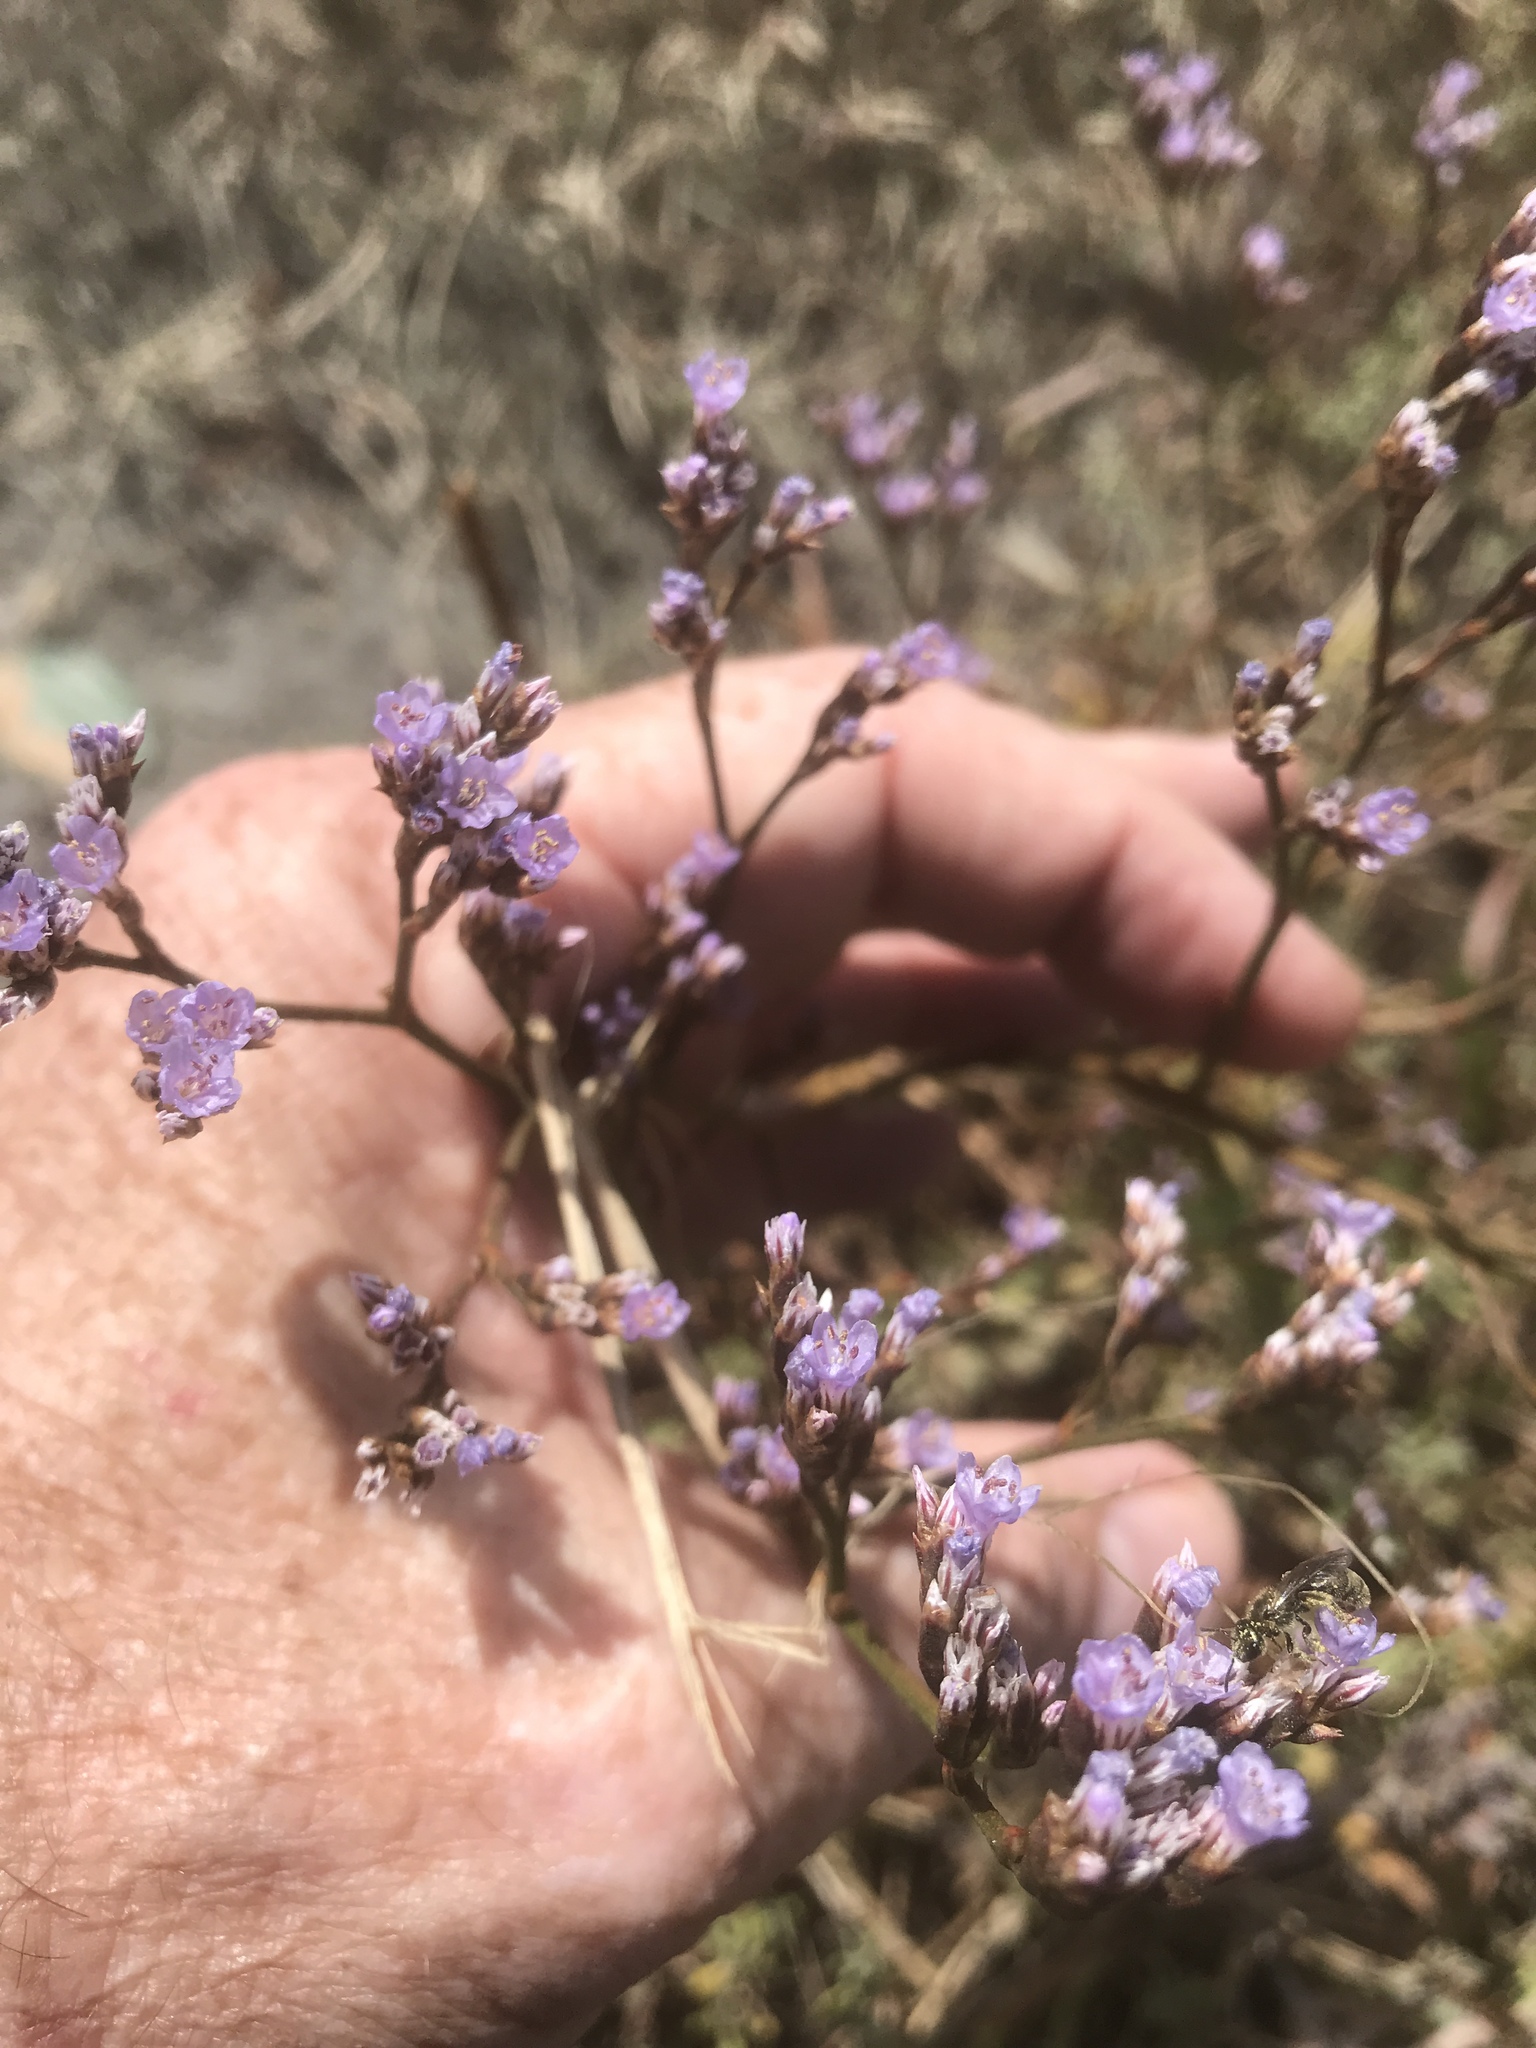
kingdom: Plantae
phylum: Tracheophyta
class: Magnoliopsida
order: Caryophyllales
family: Plumbaginaceae
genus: Limonium
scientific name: Limonium californicum
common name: Marsh-rosemary
